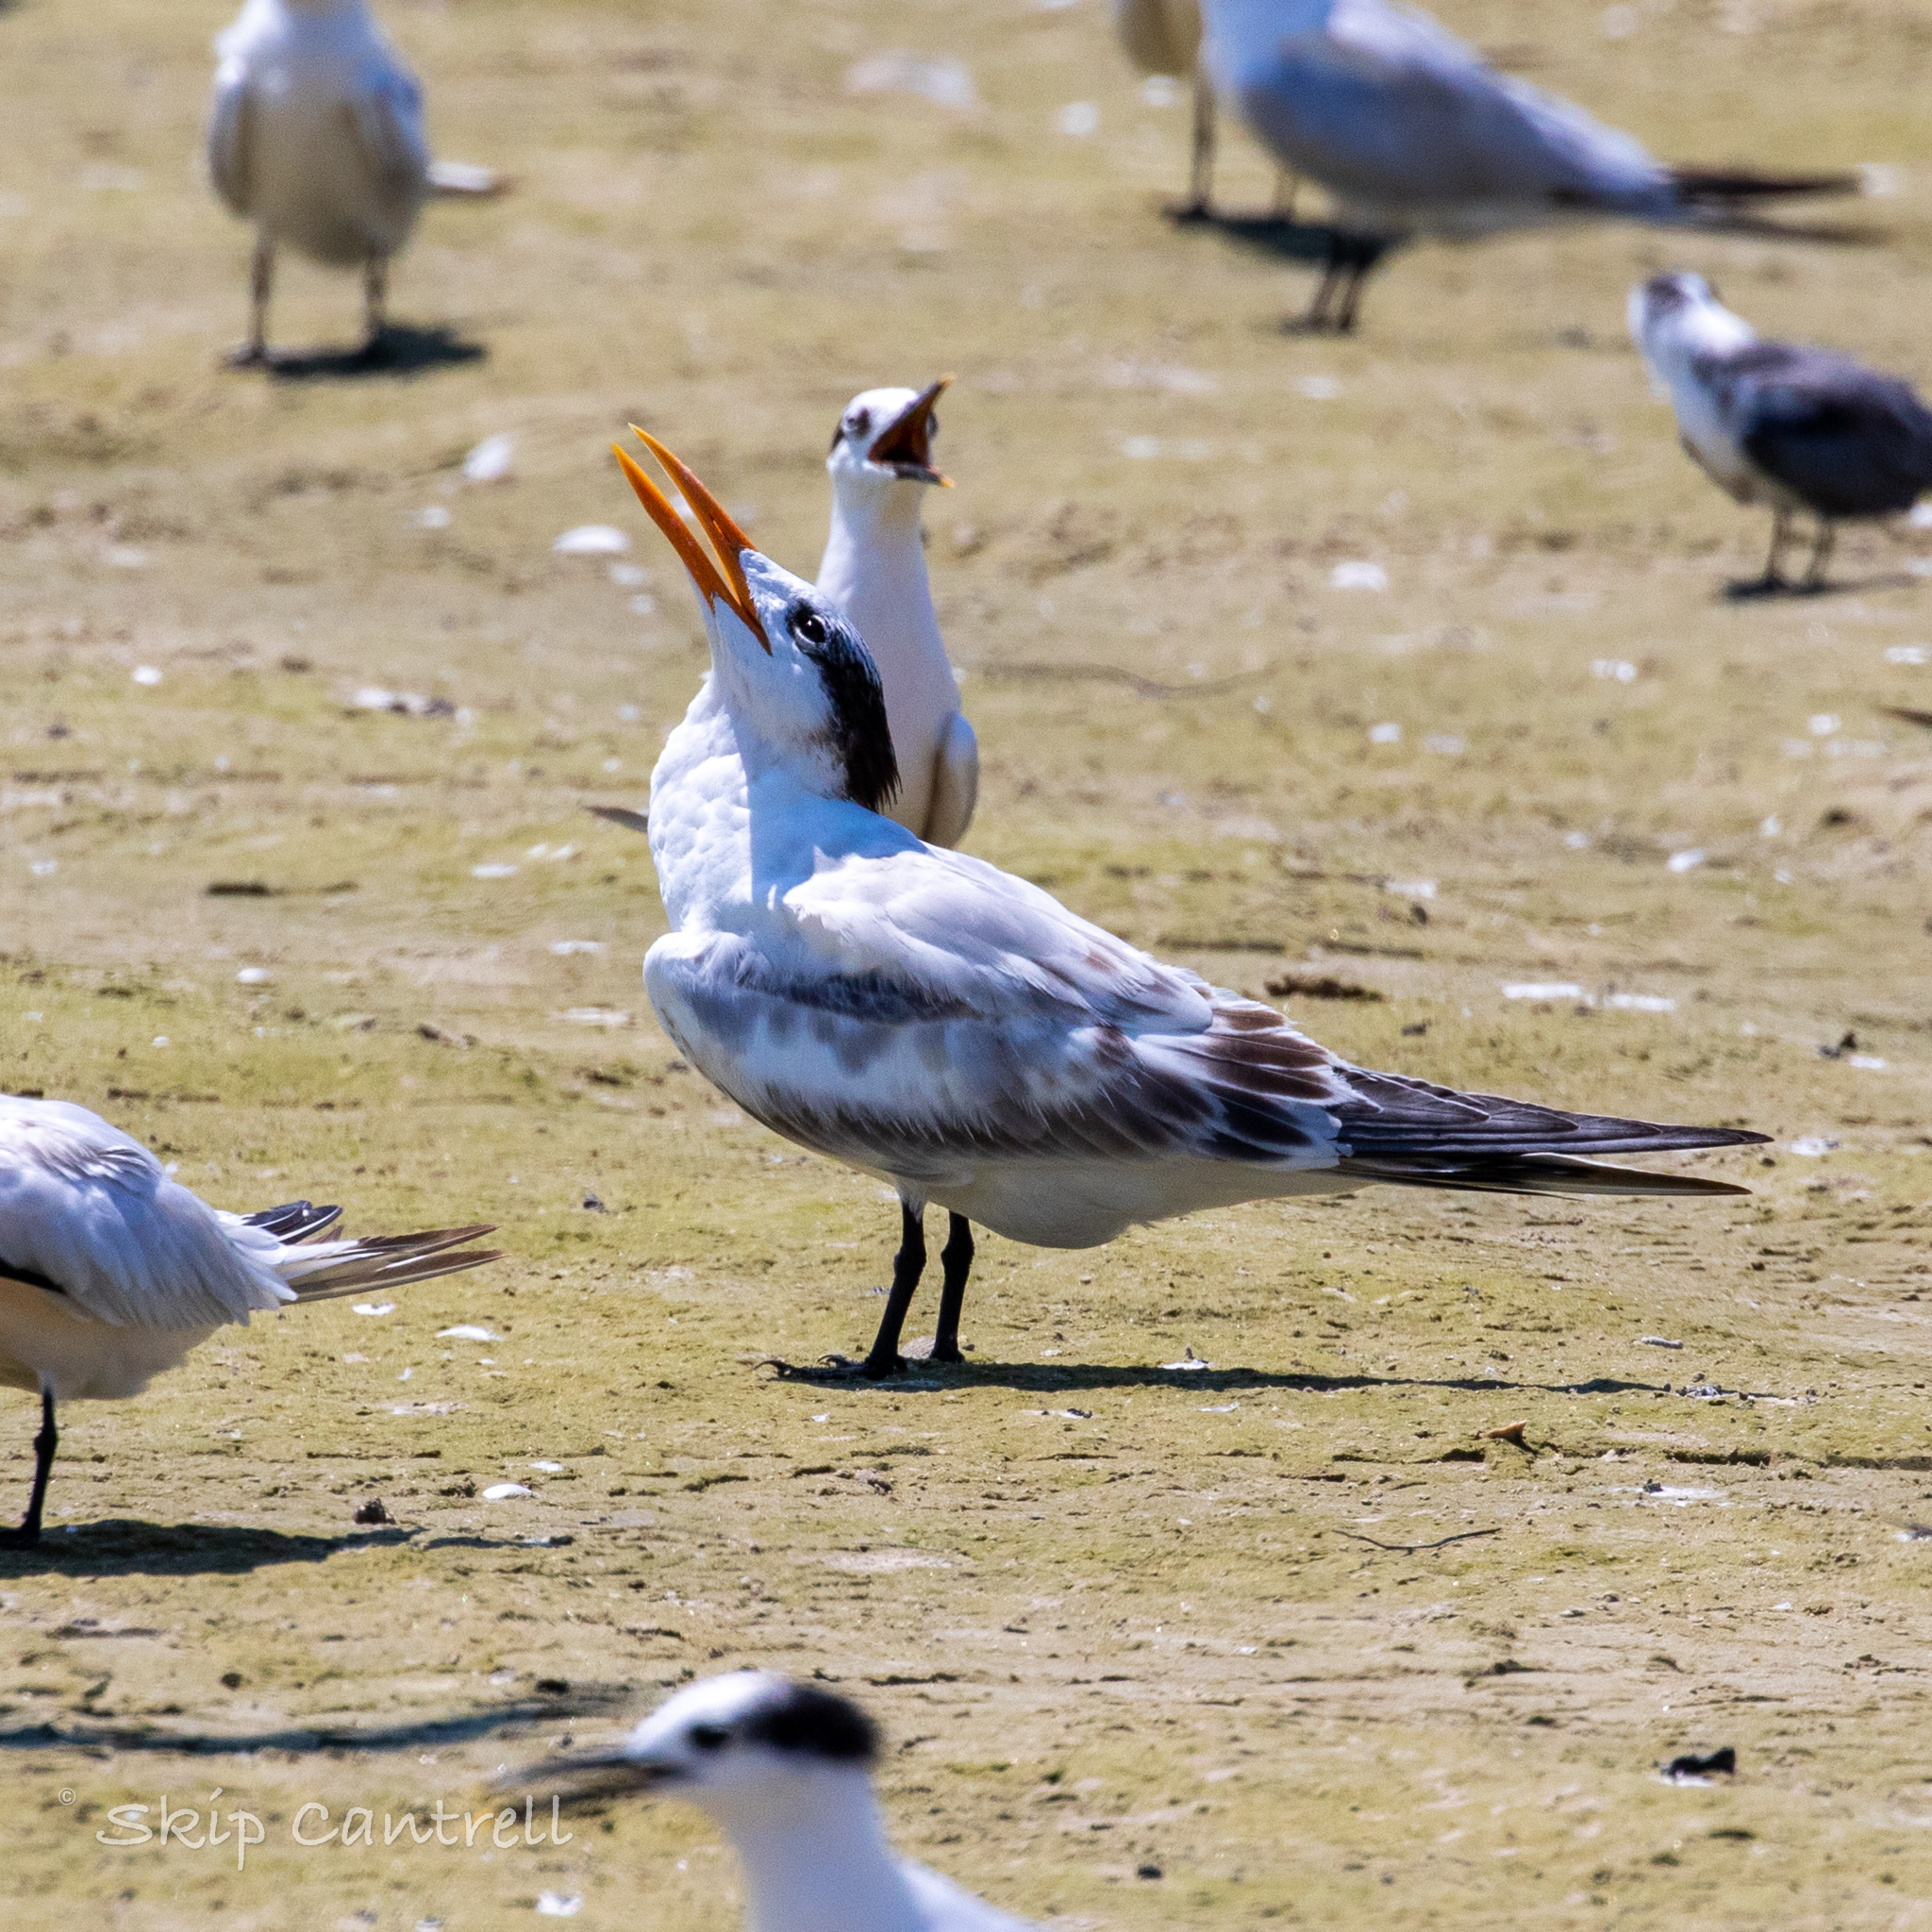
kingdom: Animalia
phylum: Chordata
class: Aves
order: Charadriiformes
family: Laridae
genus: Thalasseus
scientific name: Thalasseus maximus
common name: Royal tern
